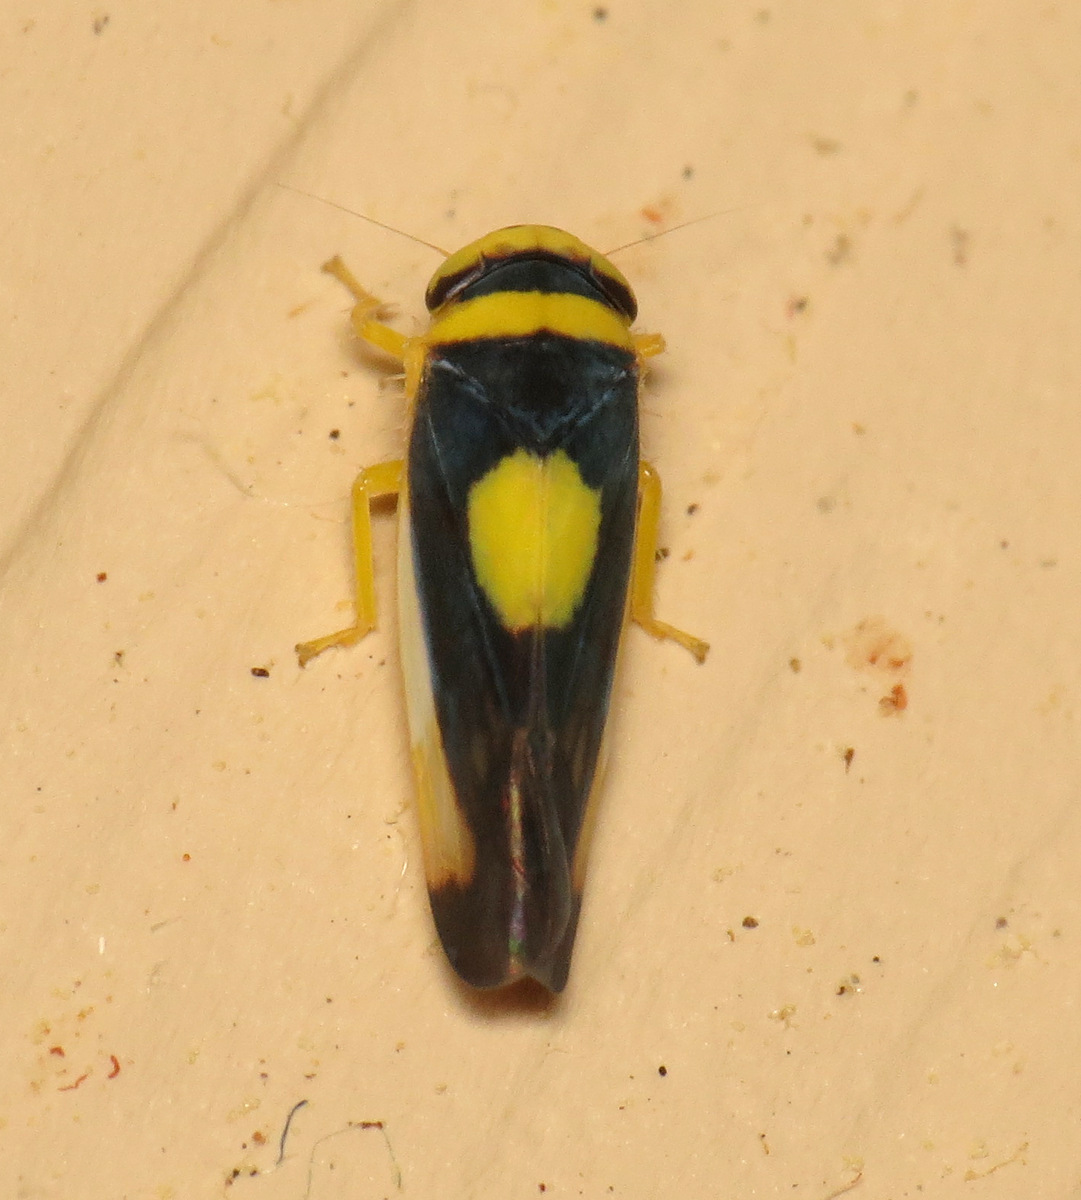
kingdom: Animalia
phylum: Arthropoda
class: Insecta
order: Hemiptera
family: Cicadellidae
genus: Colladonus
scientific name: Colladonus clitellarius
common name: The saddleback leafhopper
